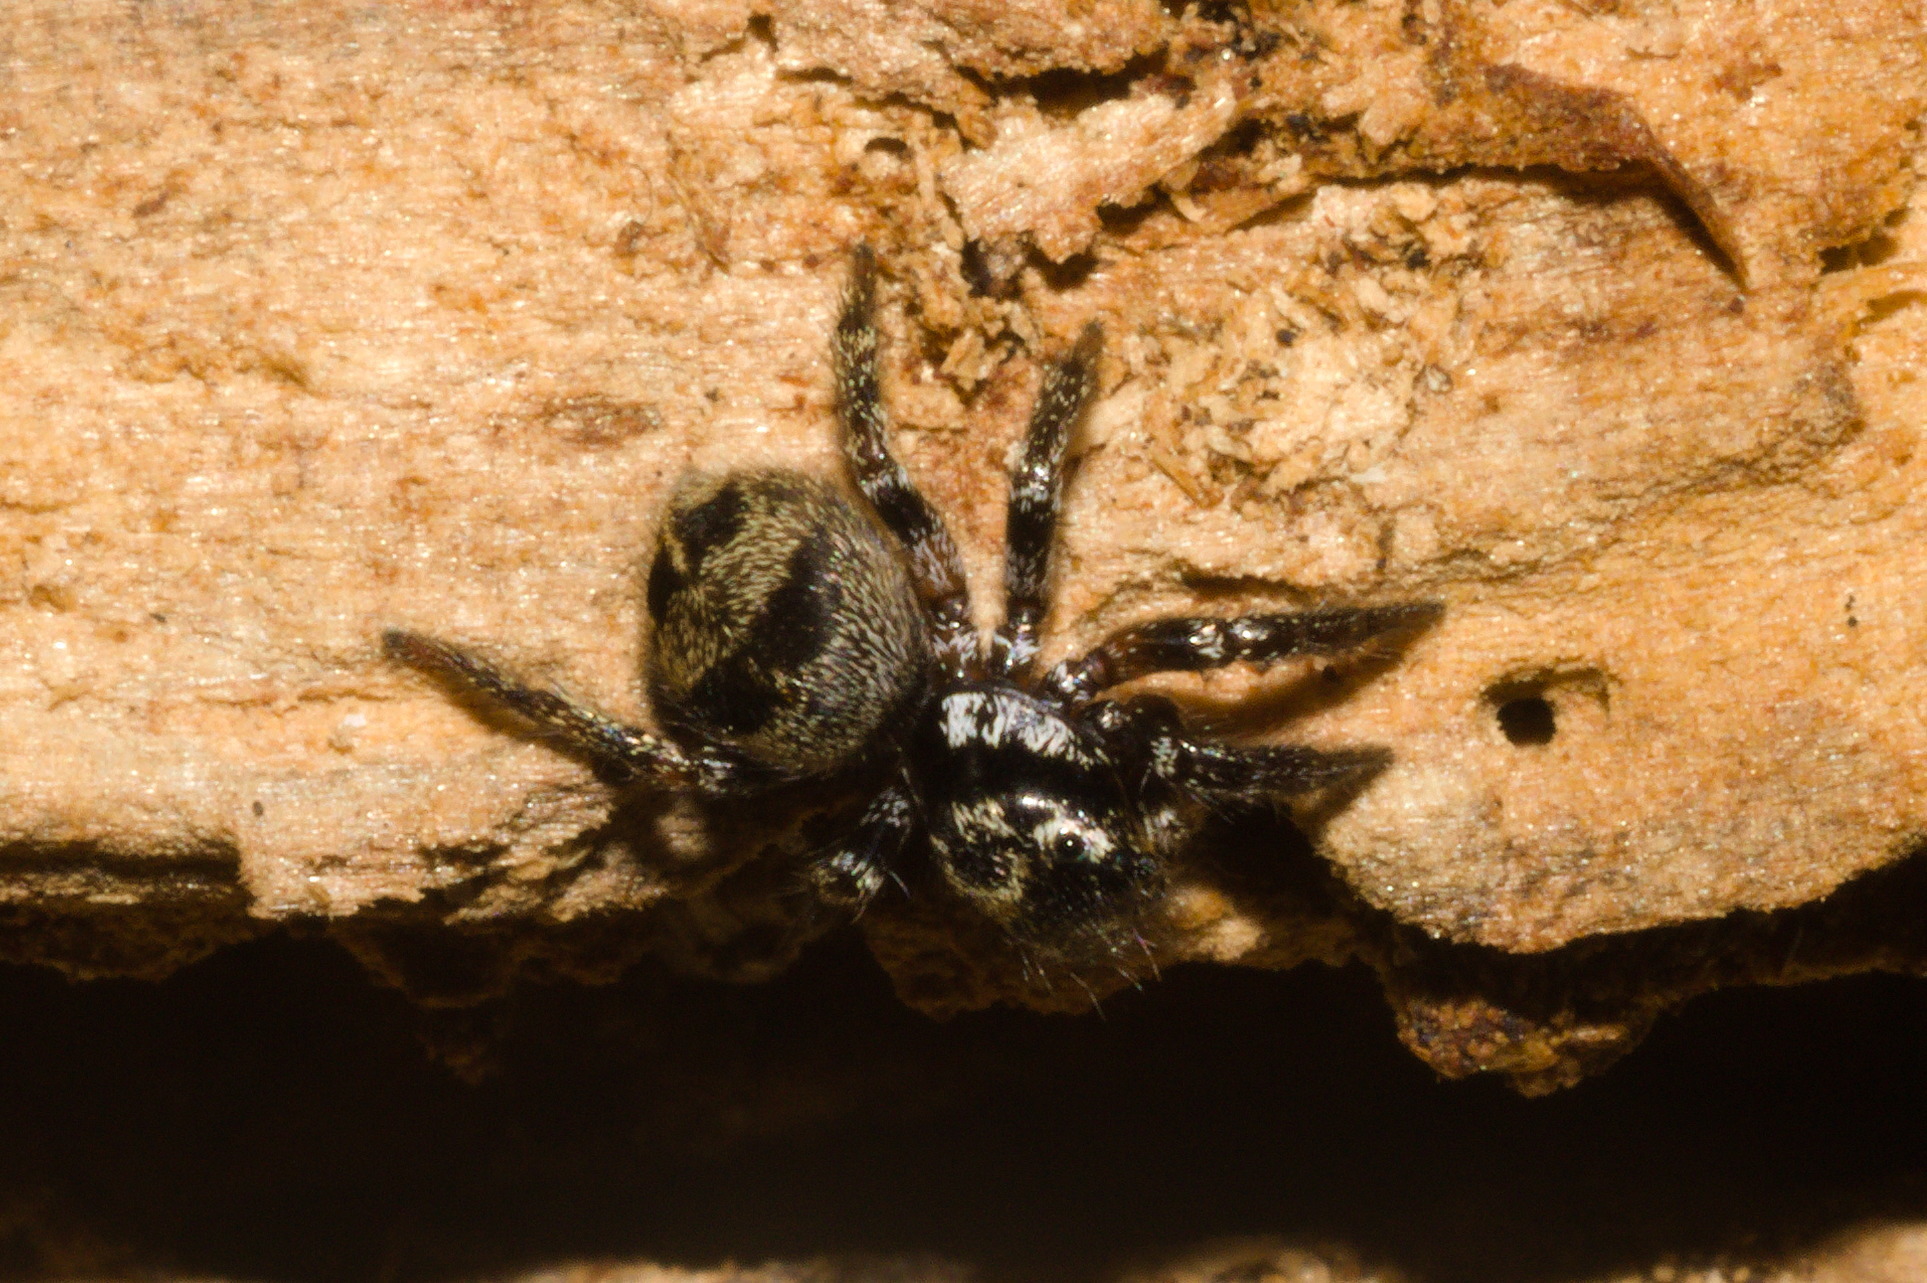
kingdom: Animalia
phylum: Arthropoda
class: Arachnida
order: Araneae
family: Salticidae
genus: Corythalia
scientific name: Corythalia conferta
